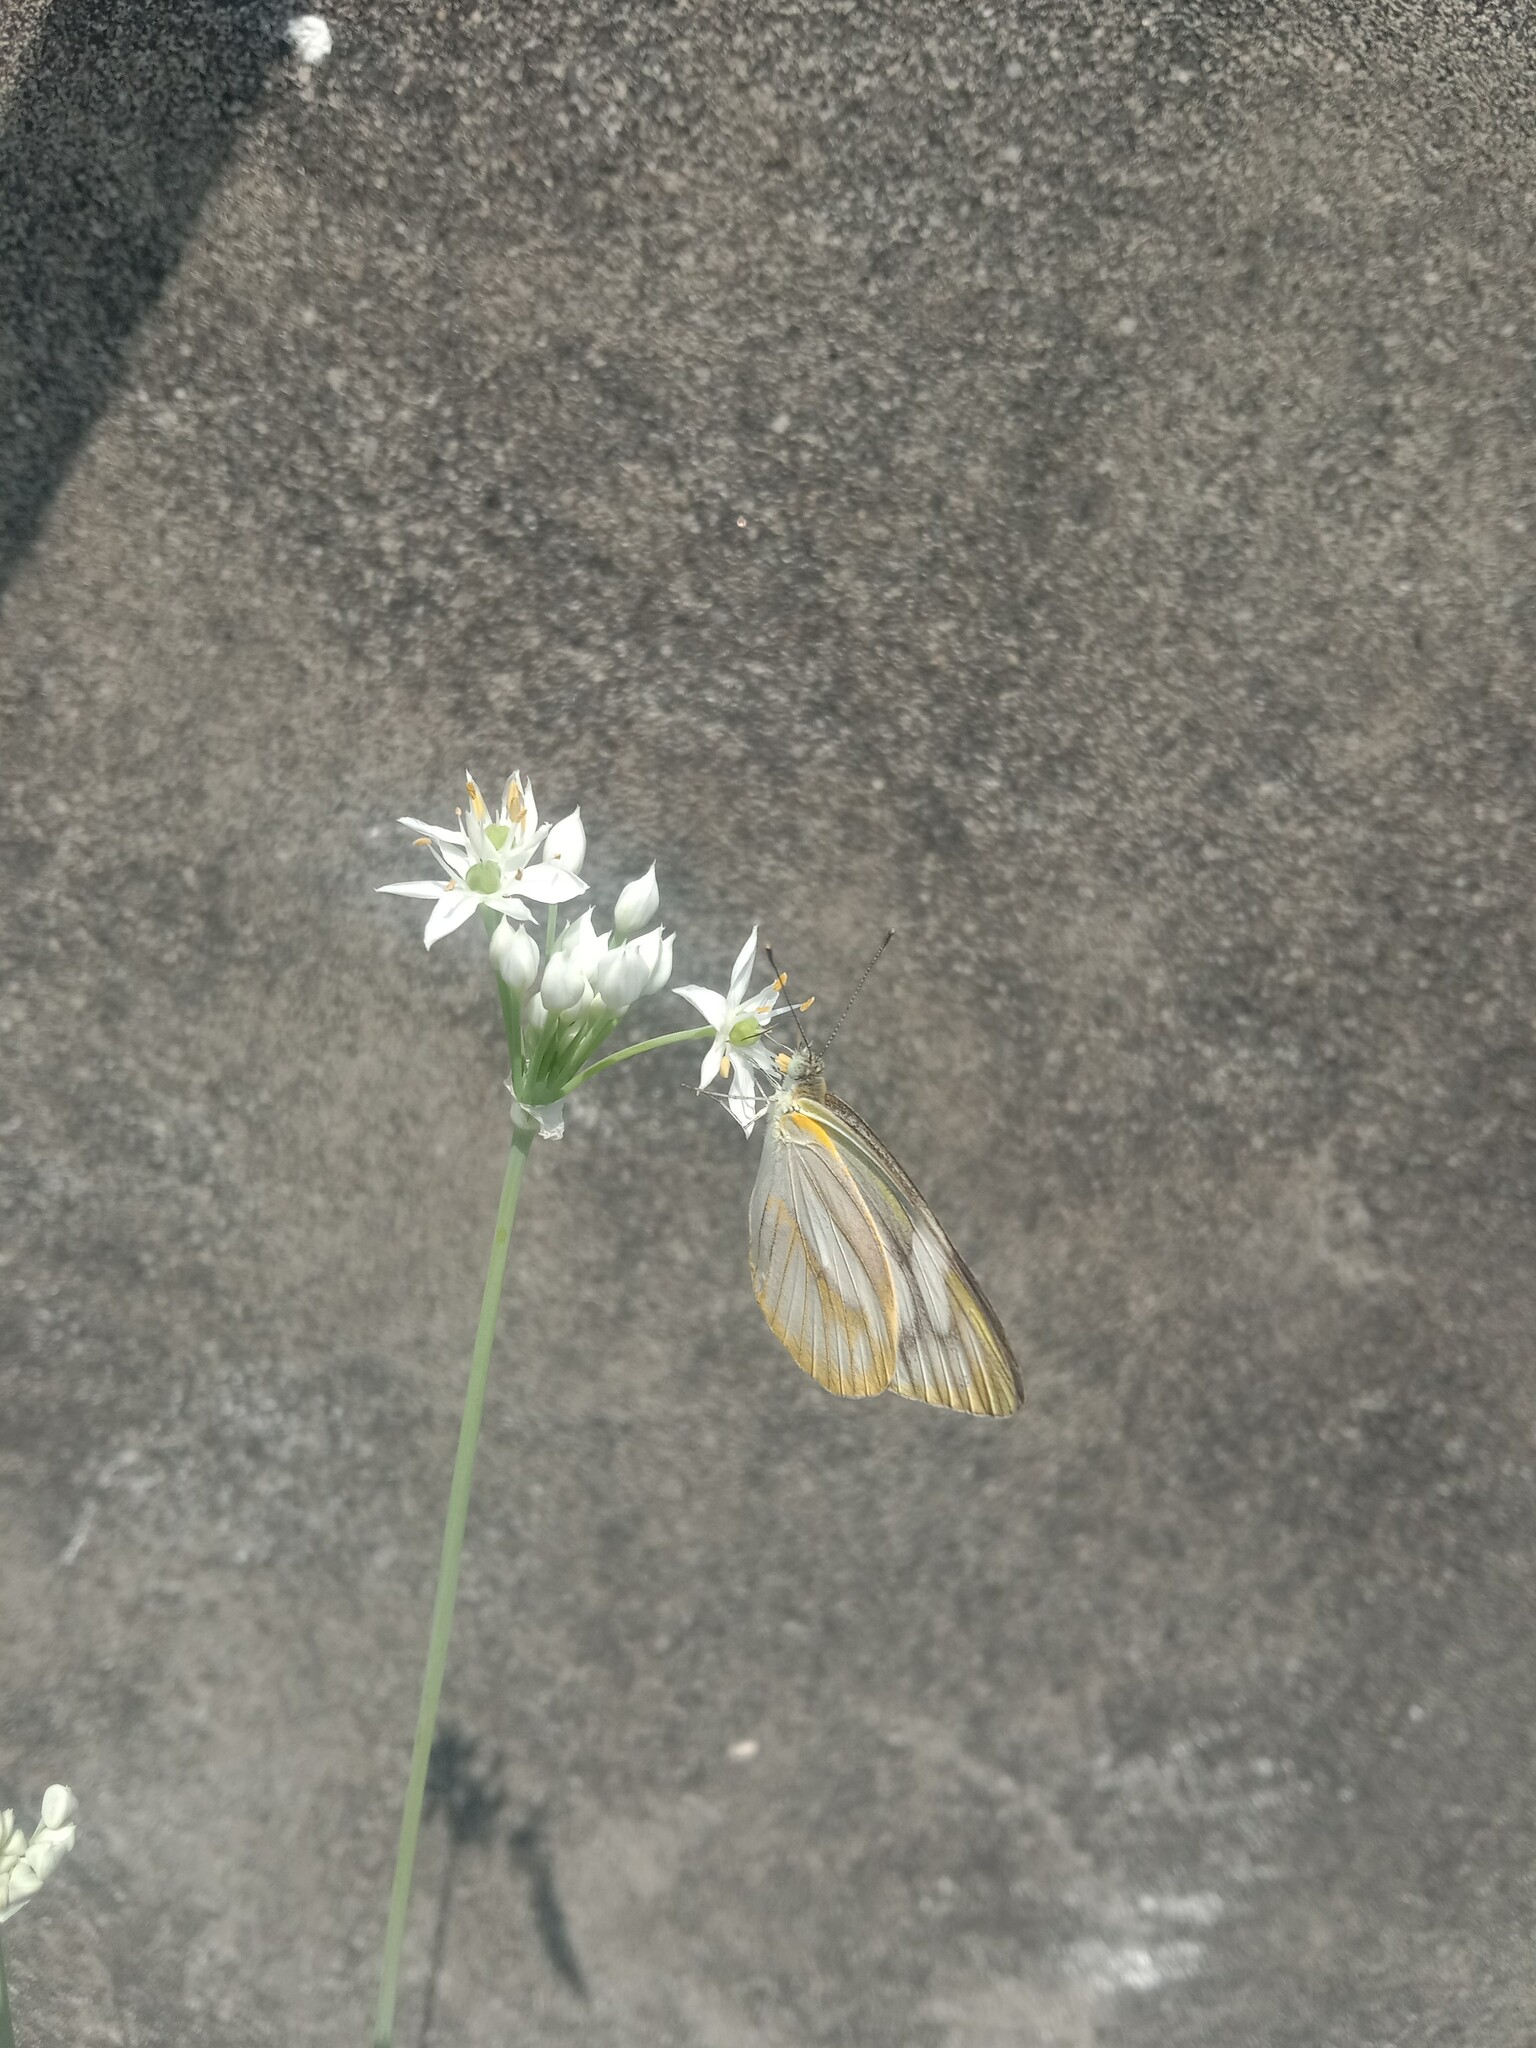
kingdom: Animalia
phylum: Arthropoda
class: Insecta
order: Lepidoptera
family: Pieridae
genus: Appias
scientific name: Appias libythea
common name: Striped albatross
